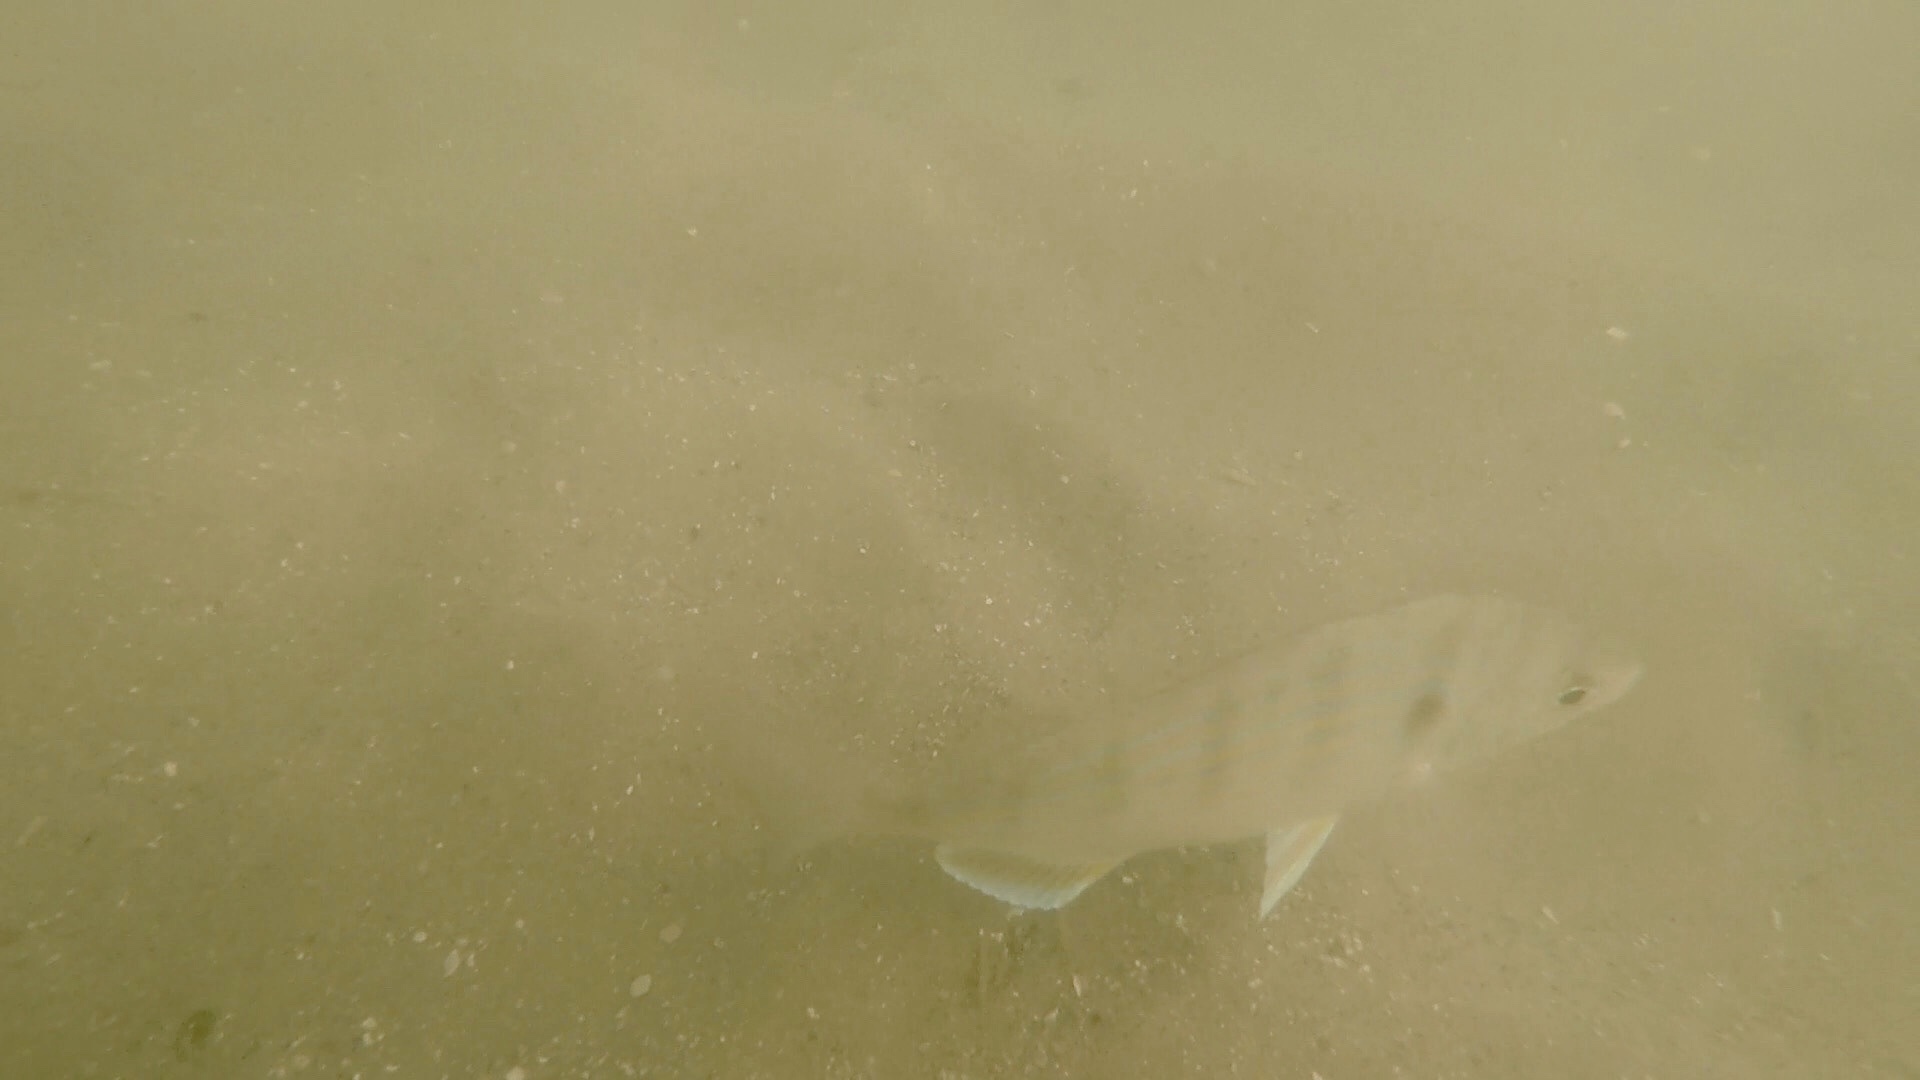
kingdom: Animalia
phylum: Chordata
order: Perciformes
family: Sparidae
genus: Lagodon
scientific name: Lagodon rhomboides
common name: Pinfish
